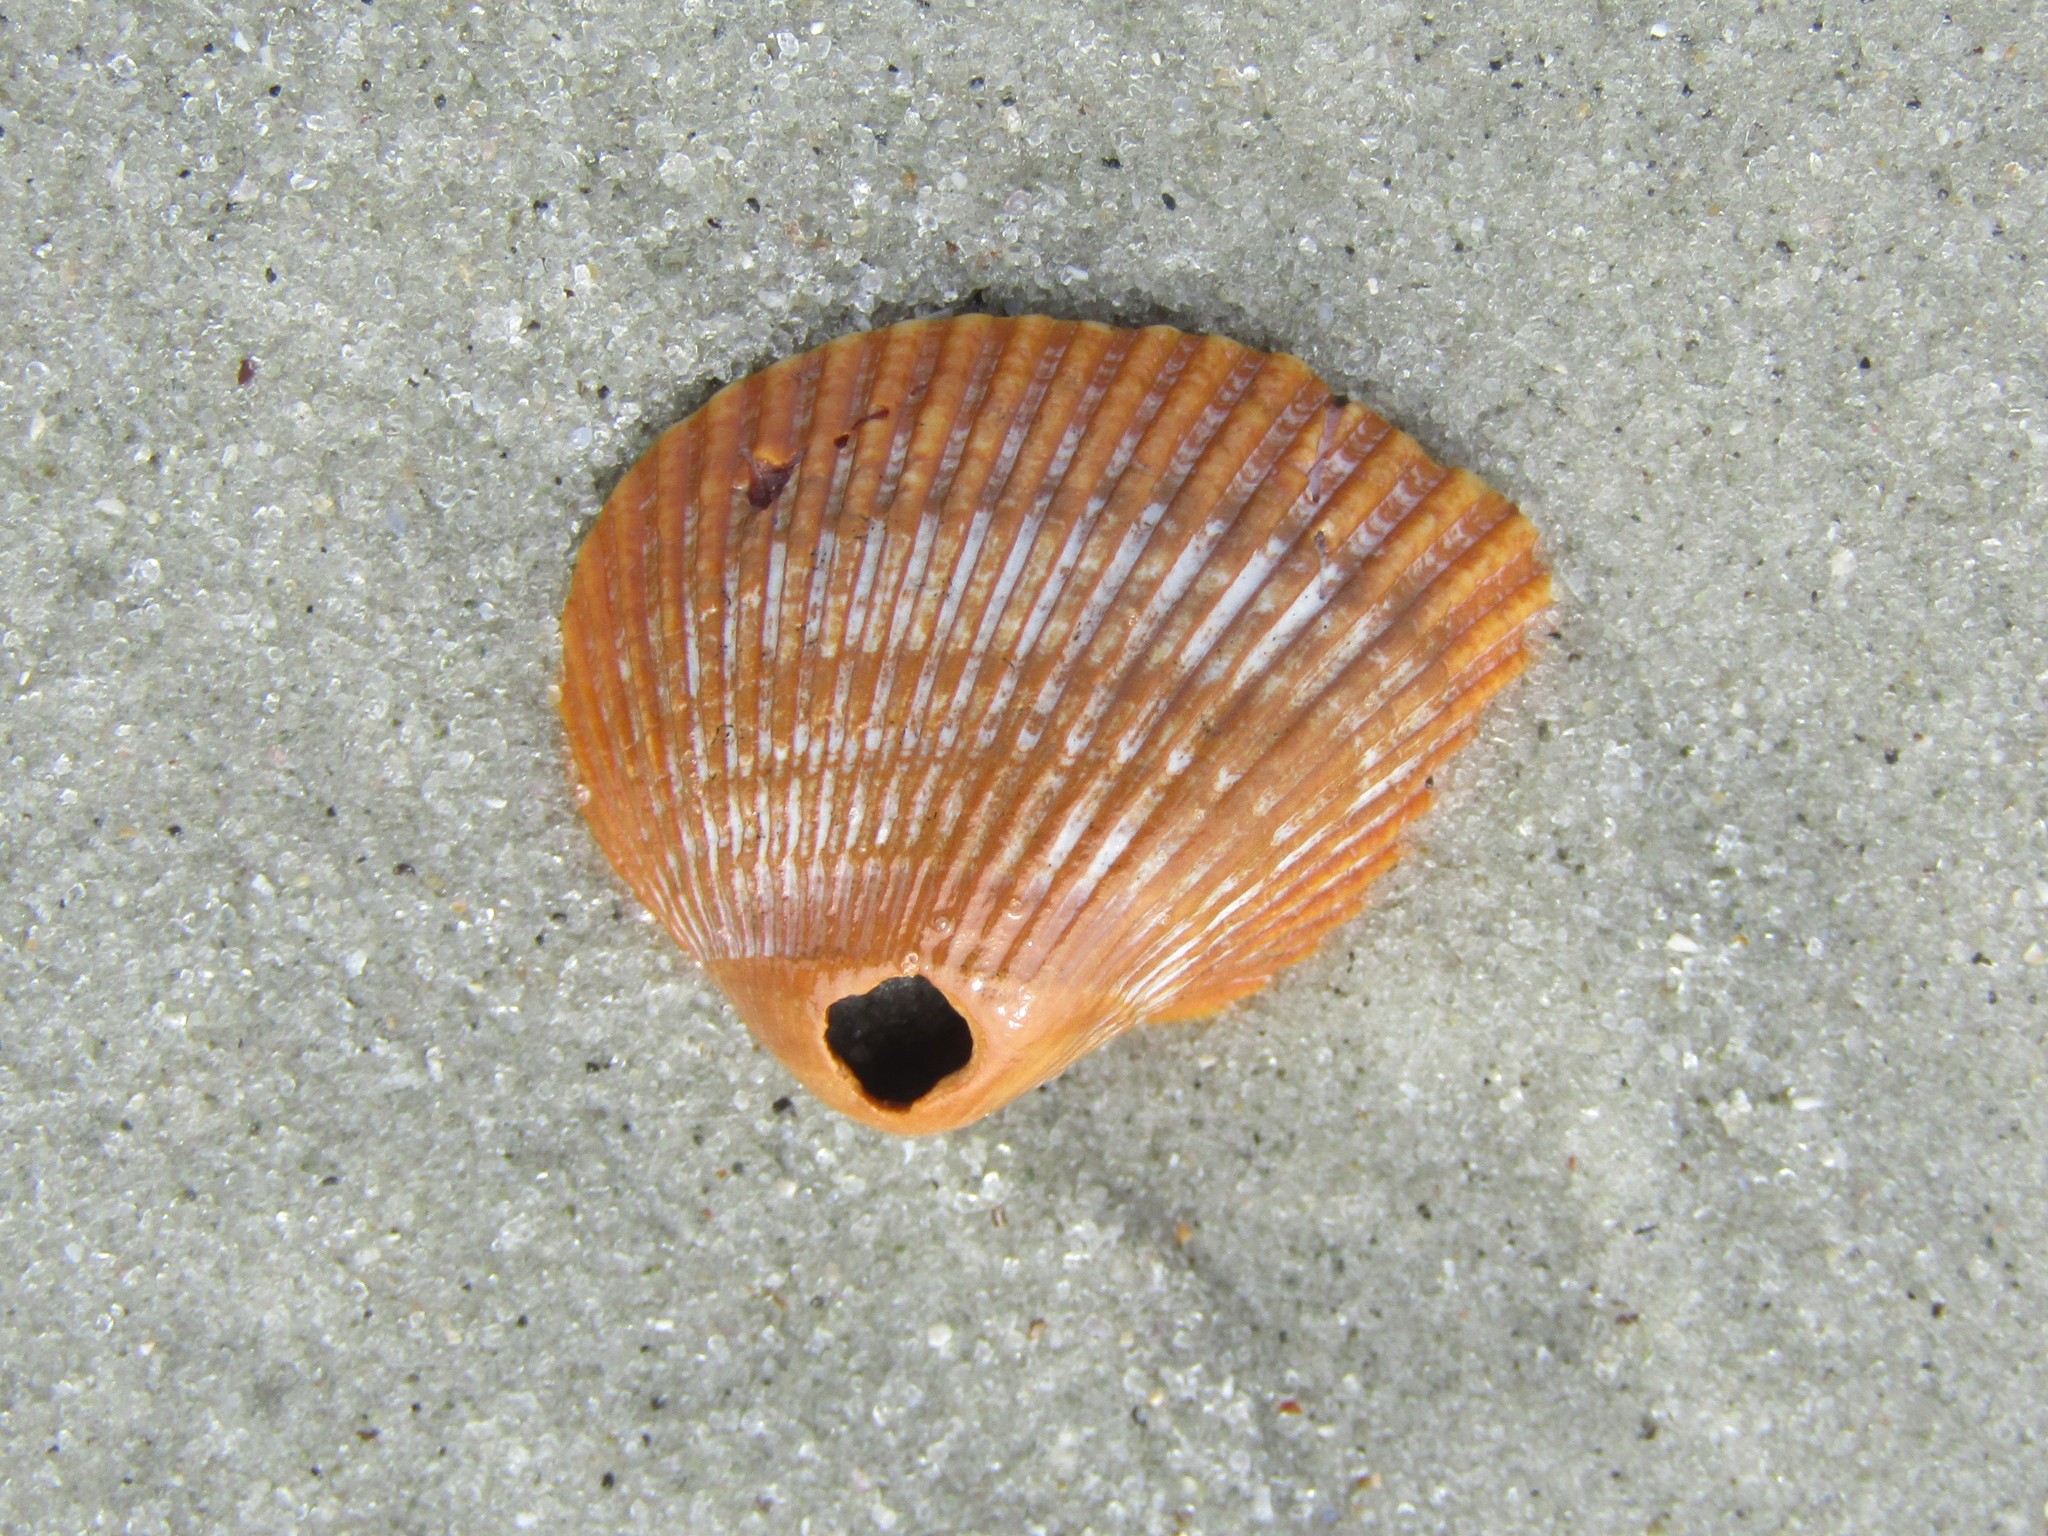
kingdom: Animalia
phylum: Mollusca
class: Bivalvia
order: Arcida
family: Noetiidae
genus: Noetia
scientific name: Noetia ponderosa
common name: Ponderous ark
